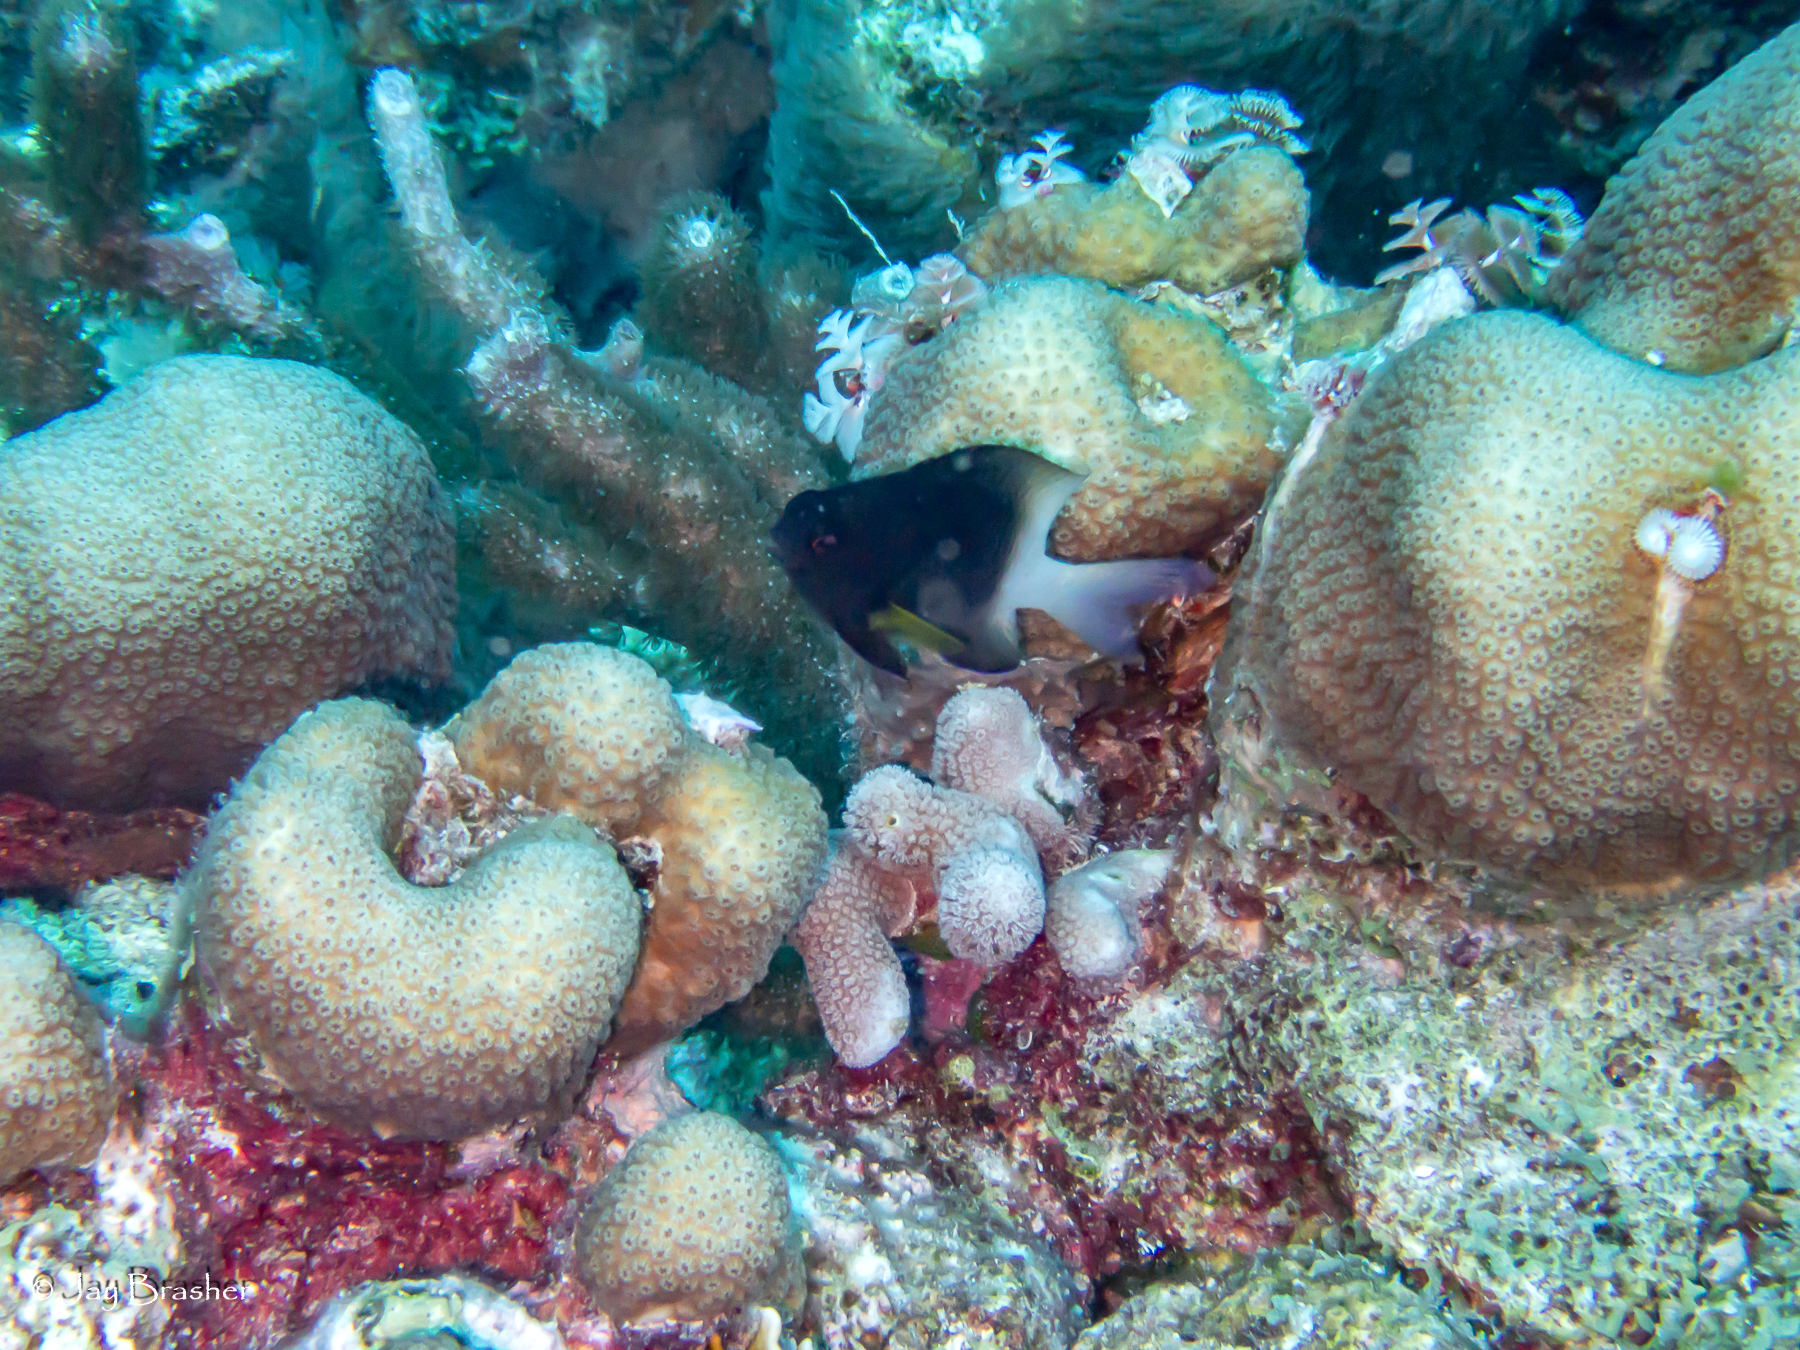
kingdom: Animalia
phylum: Chordata
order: Perciformes
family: Pomacentridae
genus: Stegastes
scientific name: Stegastes partitus
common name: Bicolor damselfish
